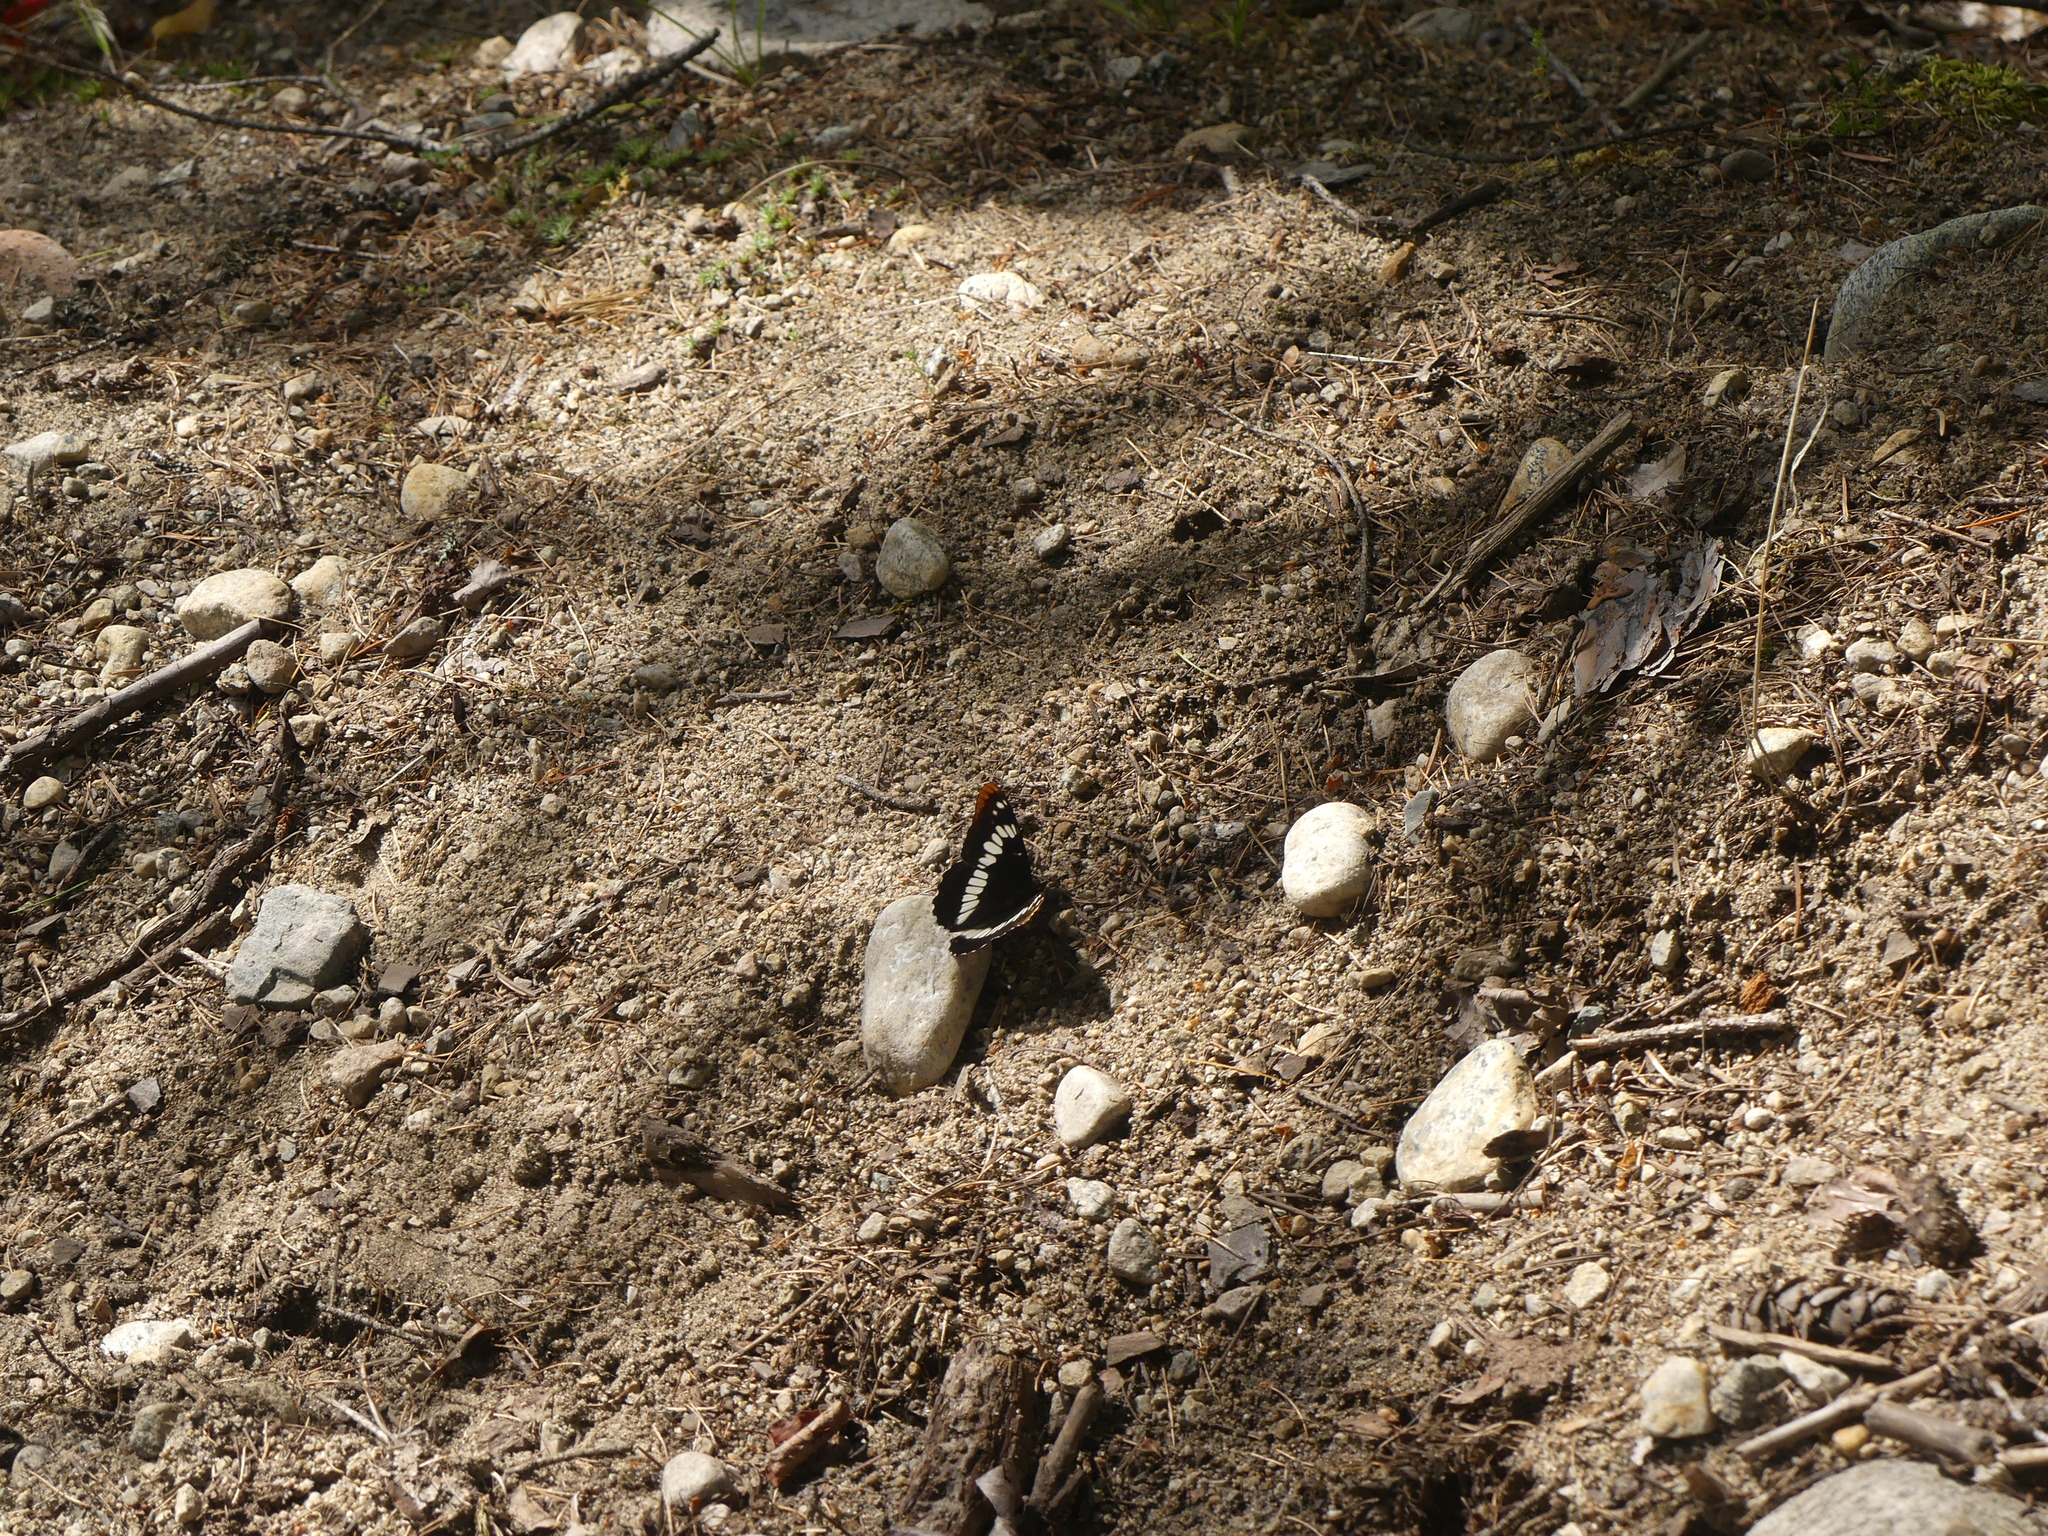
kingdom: Animalia
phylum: Arthropoda
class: Insecta
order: Lepidoptera
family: Nymphalidae
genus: Limenitis
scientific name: Limenitis lorquini
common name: Lorquin's admiral
